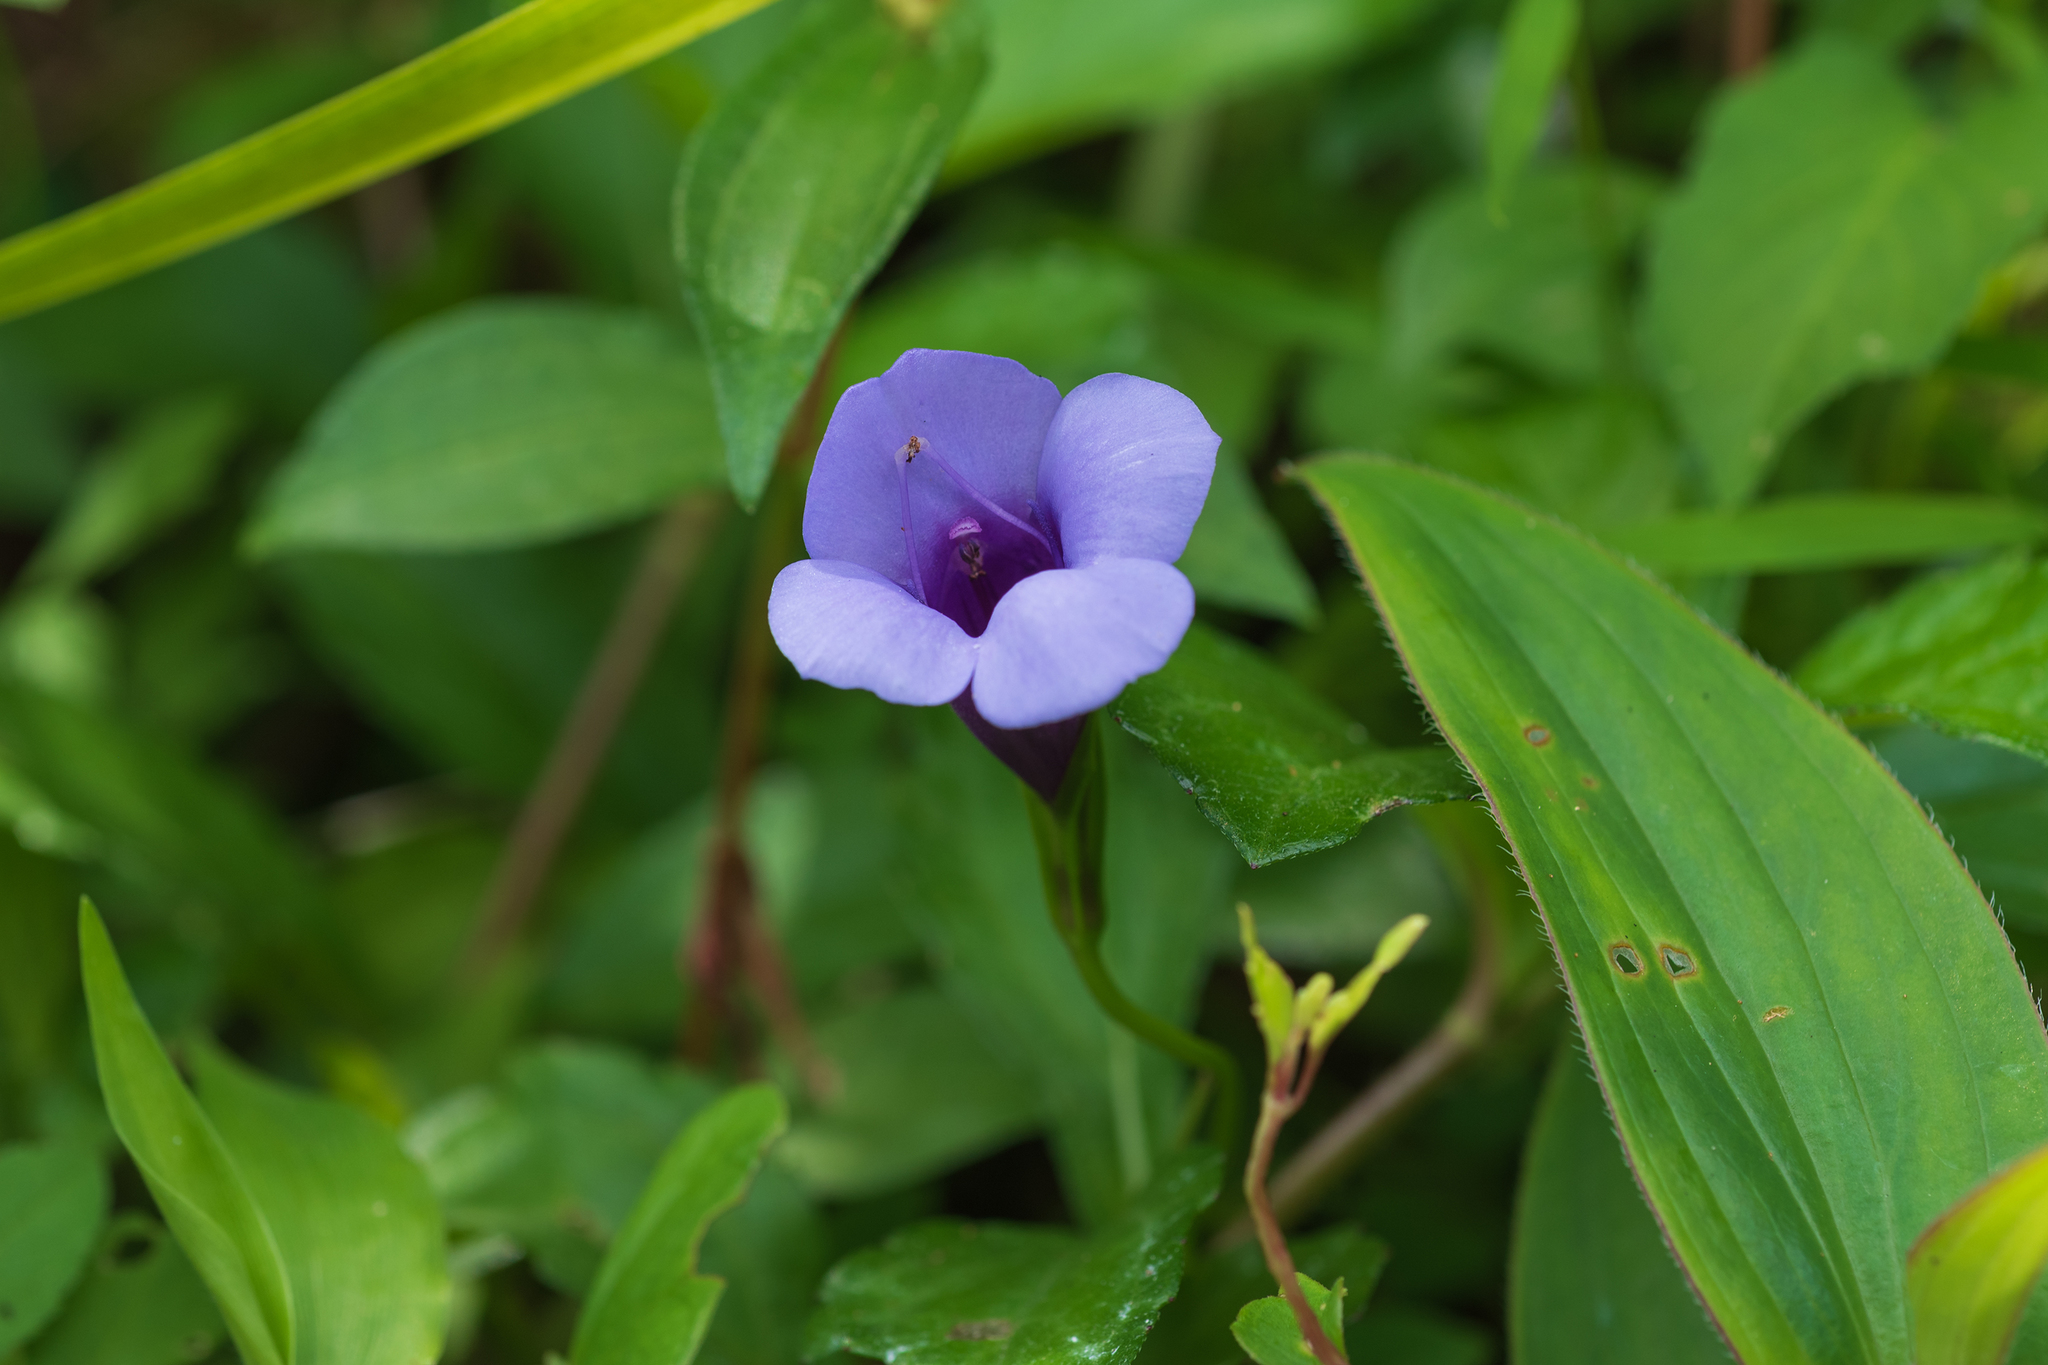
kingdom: Plantae
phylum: Tracheophyta
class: Magnoliopsida
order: Lamiales
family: Linderniaceae
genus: Torenia
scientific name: Torenia concolor
